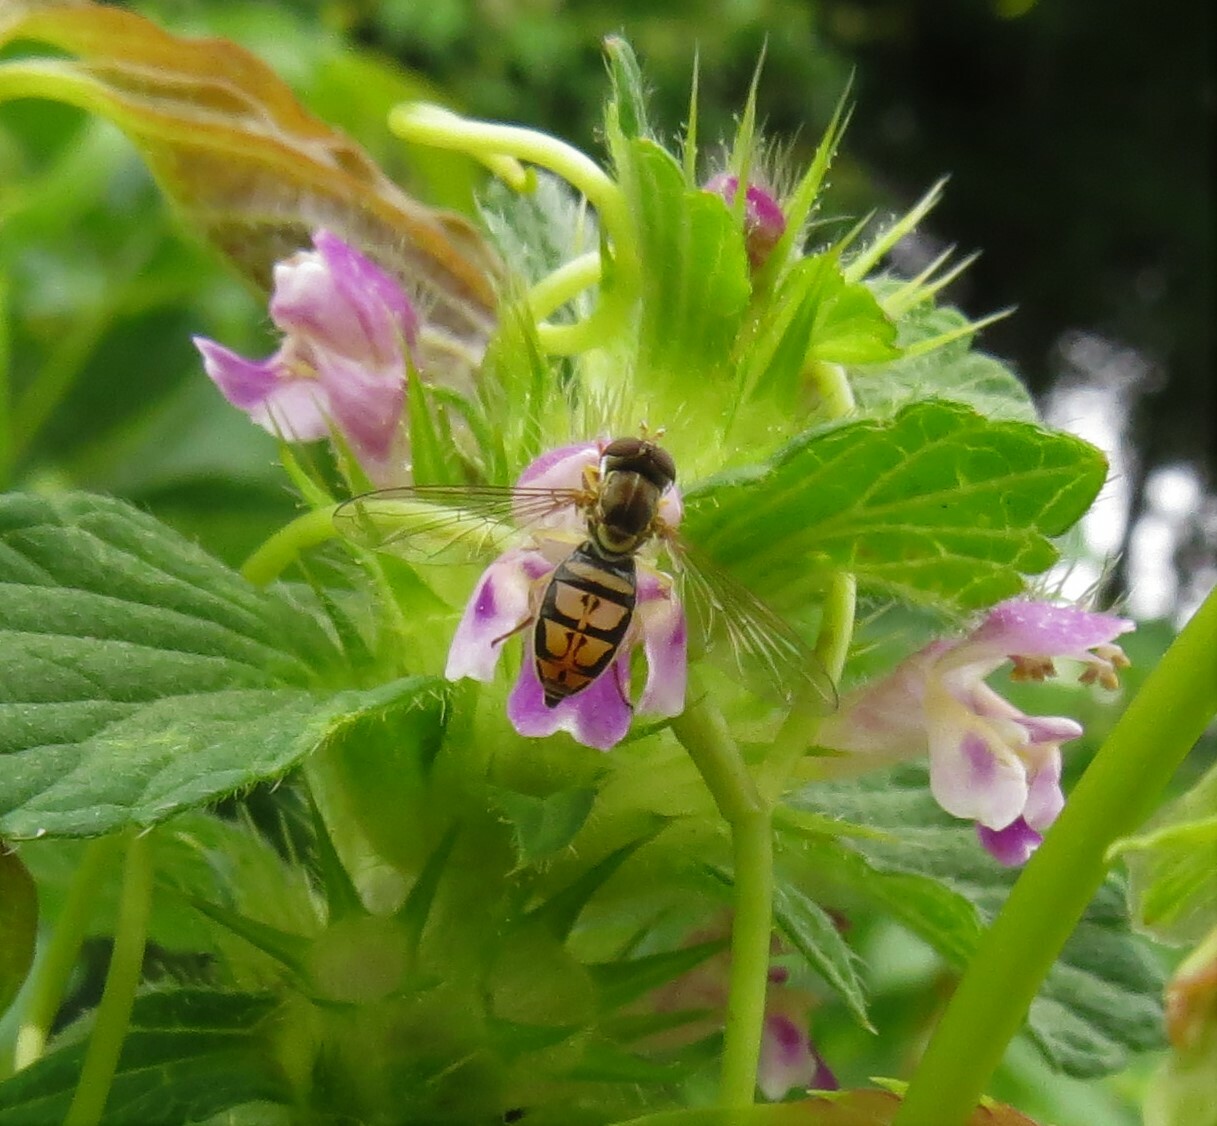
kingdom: Animalia
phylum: Arthropoda
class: Insecta
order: Diptera
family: Syrphidae
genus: Toxomerus
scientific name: Toxomerus marginatus
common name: Syrphid fly
